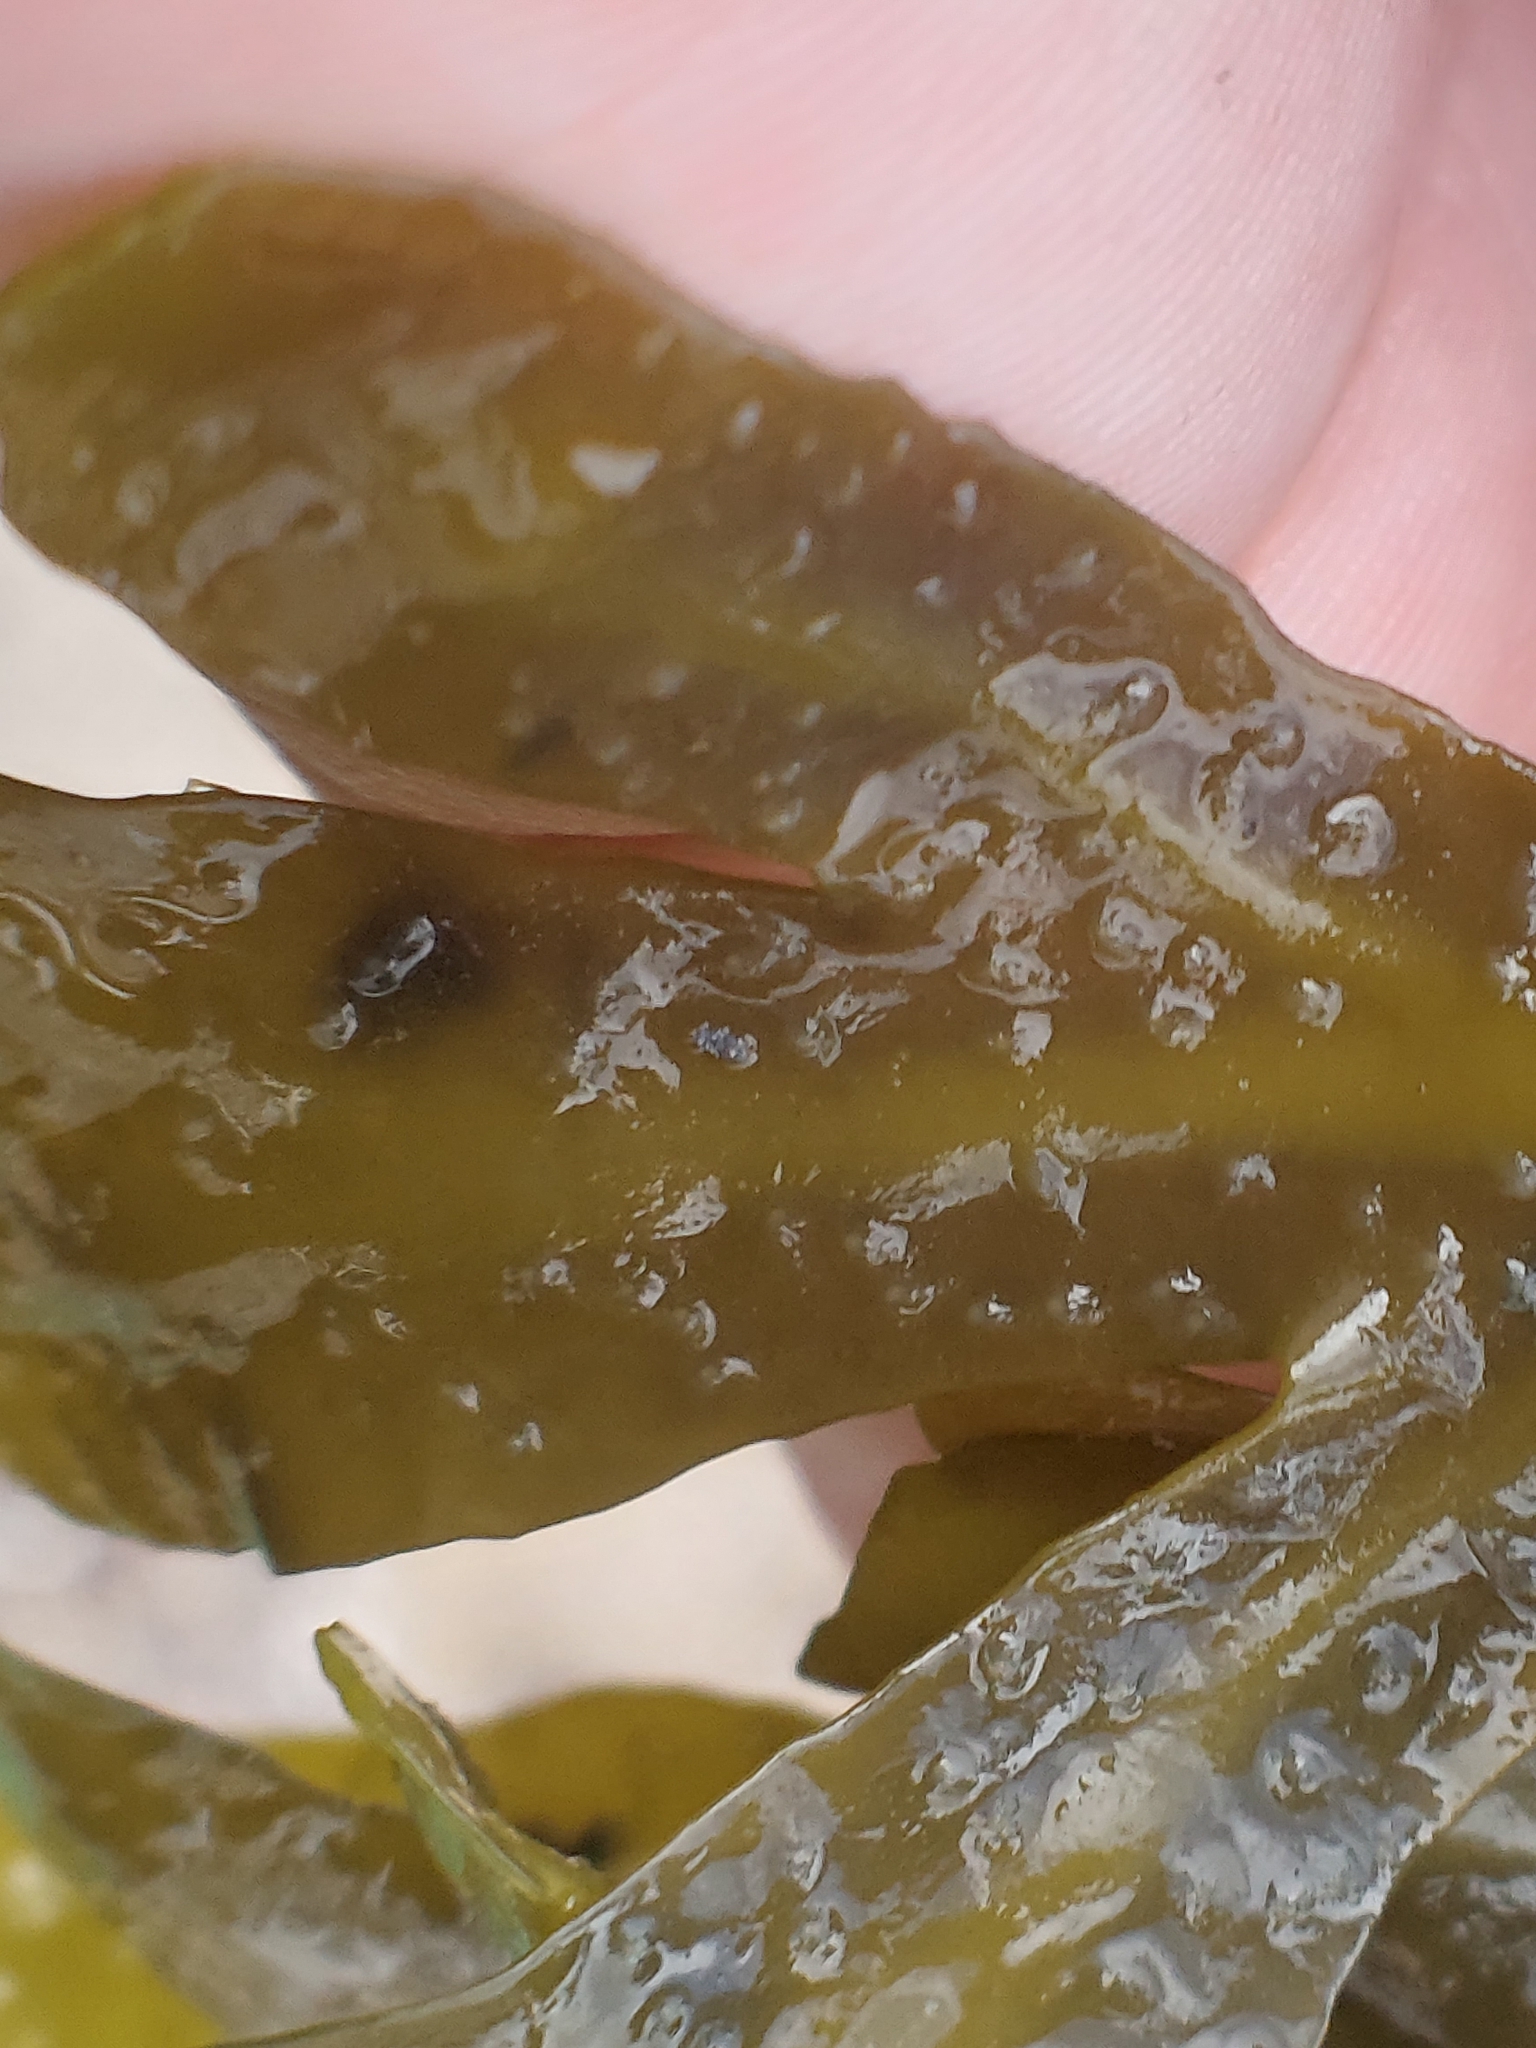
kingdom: Chromista
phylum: Ochrophyta
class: Phaeophyceae
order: Fucales
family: Fucaceae
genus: Fucus
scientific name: Fucus vesiculosus
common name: Bladder wrack
